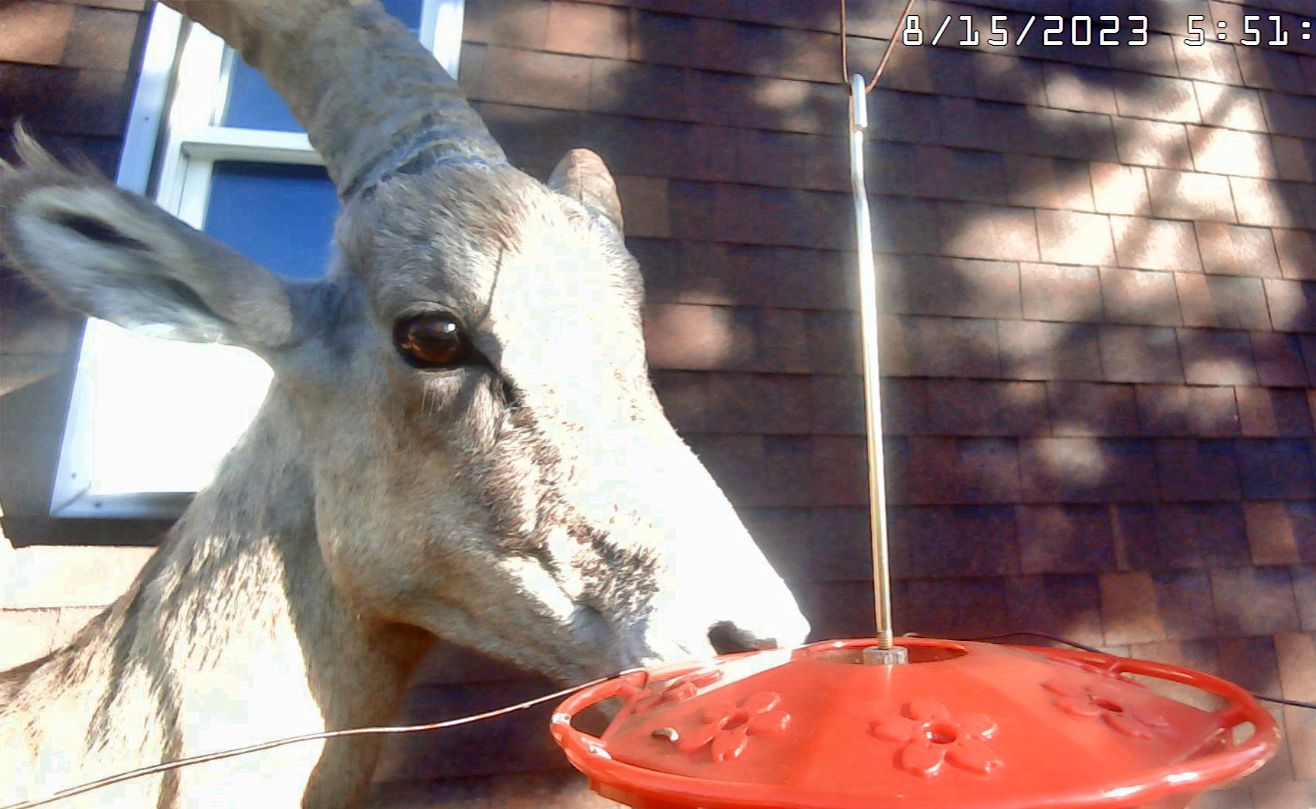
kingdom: Animalia
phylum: Chordata
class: Mammalia
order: Artiodactyla
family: Bovidae
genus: Ovis
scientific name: Ovis canadensis
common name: Bighorn sheep
